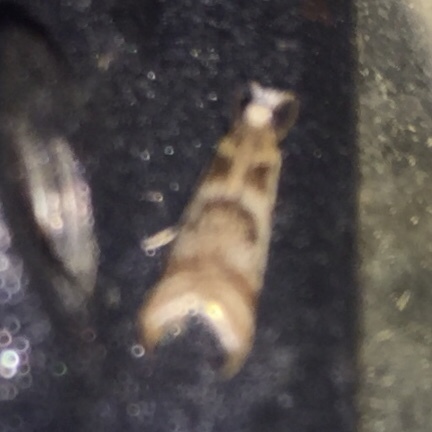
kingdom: Animalia
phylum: Arthropoda
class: Insecta
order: Lepidoptera
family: Crambidae
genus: Microcrambus
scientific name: Microcrambus elegans
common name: Elegant grass-veneer
